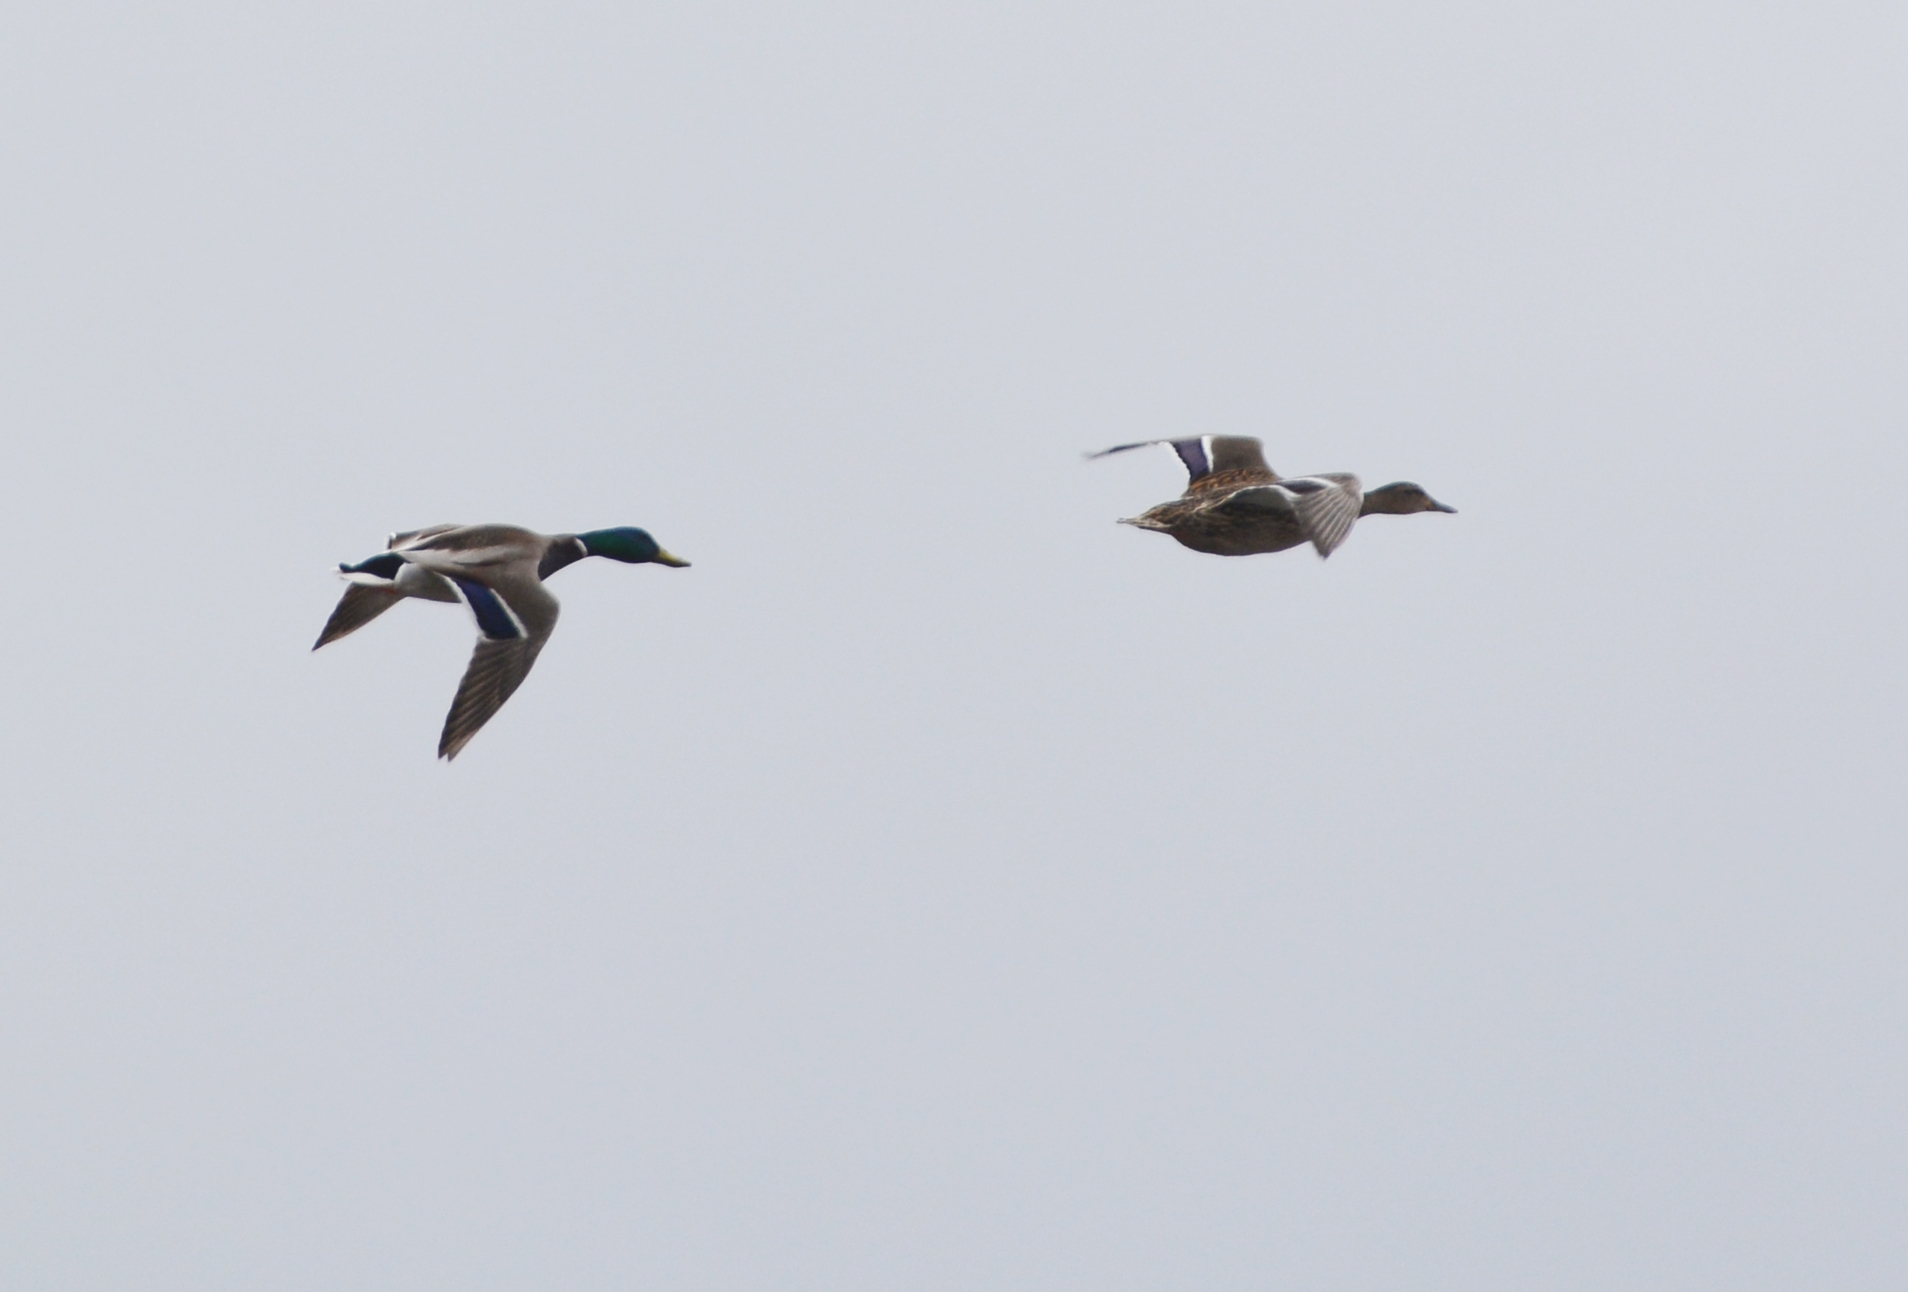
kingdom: Animalia
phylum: Chordata
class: Aves
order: Anseriformes
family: Anatidae
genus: Anas
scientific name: Anas platyrhynchos
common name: Mallard
